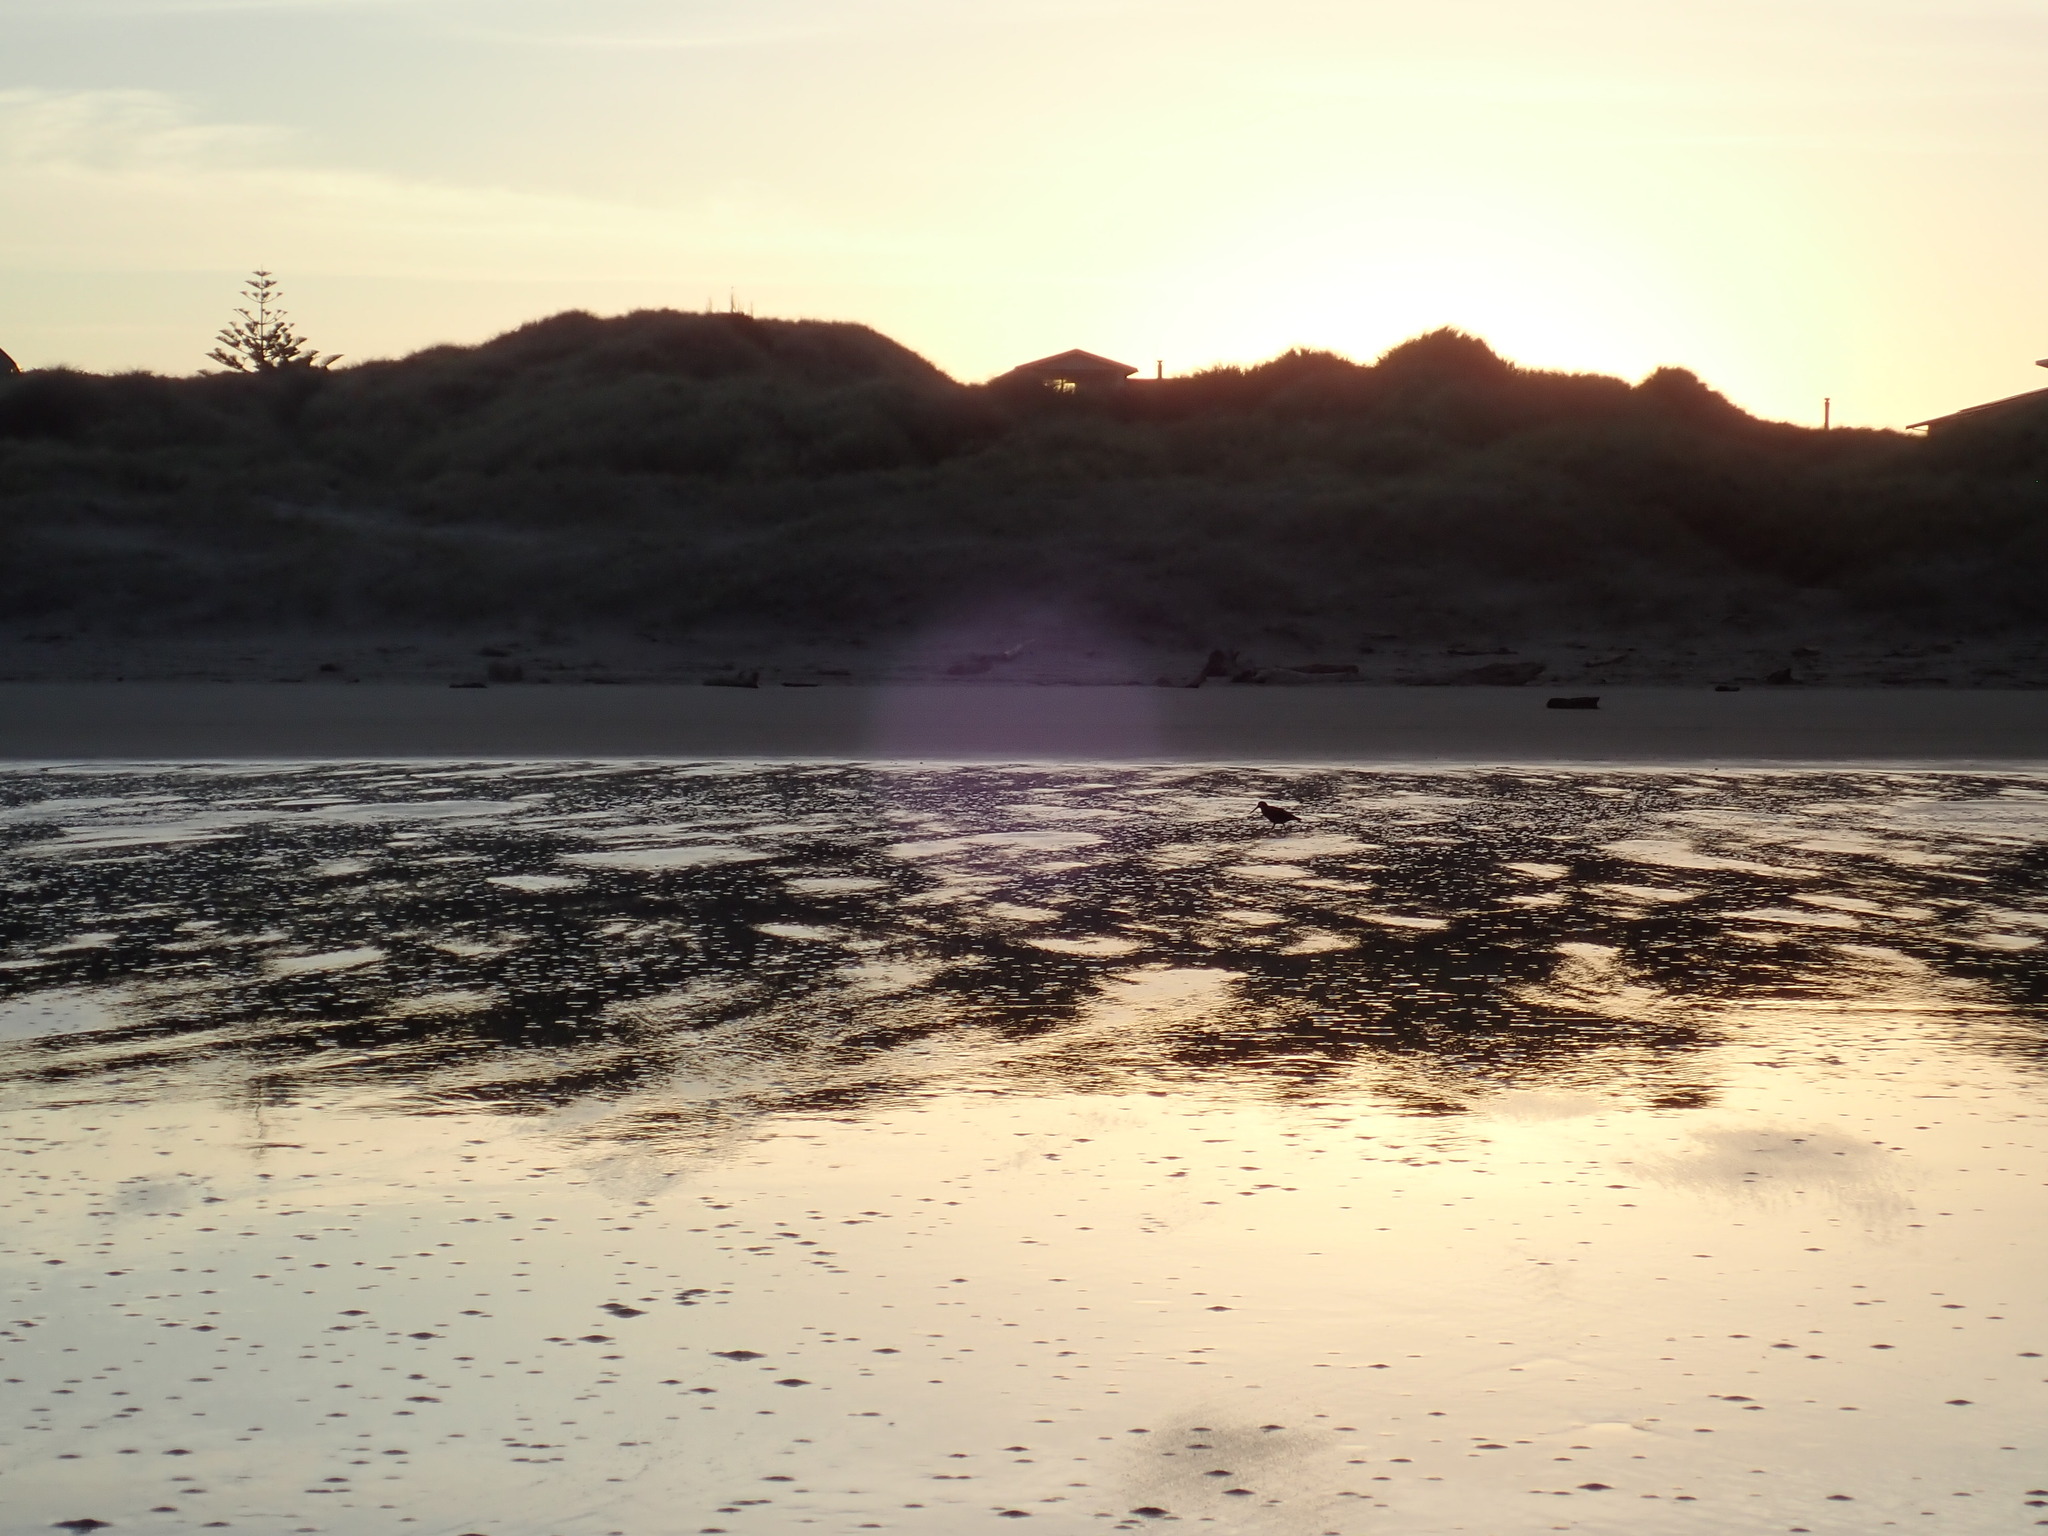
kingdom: Animalia
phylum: Chordata
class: Aves
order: Charadriiformes
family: Haematopodidae
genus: Haematopus
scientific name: Haematopus unicolor
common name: Variable oystercatcher
